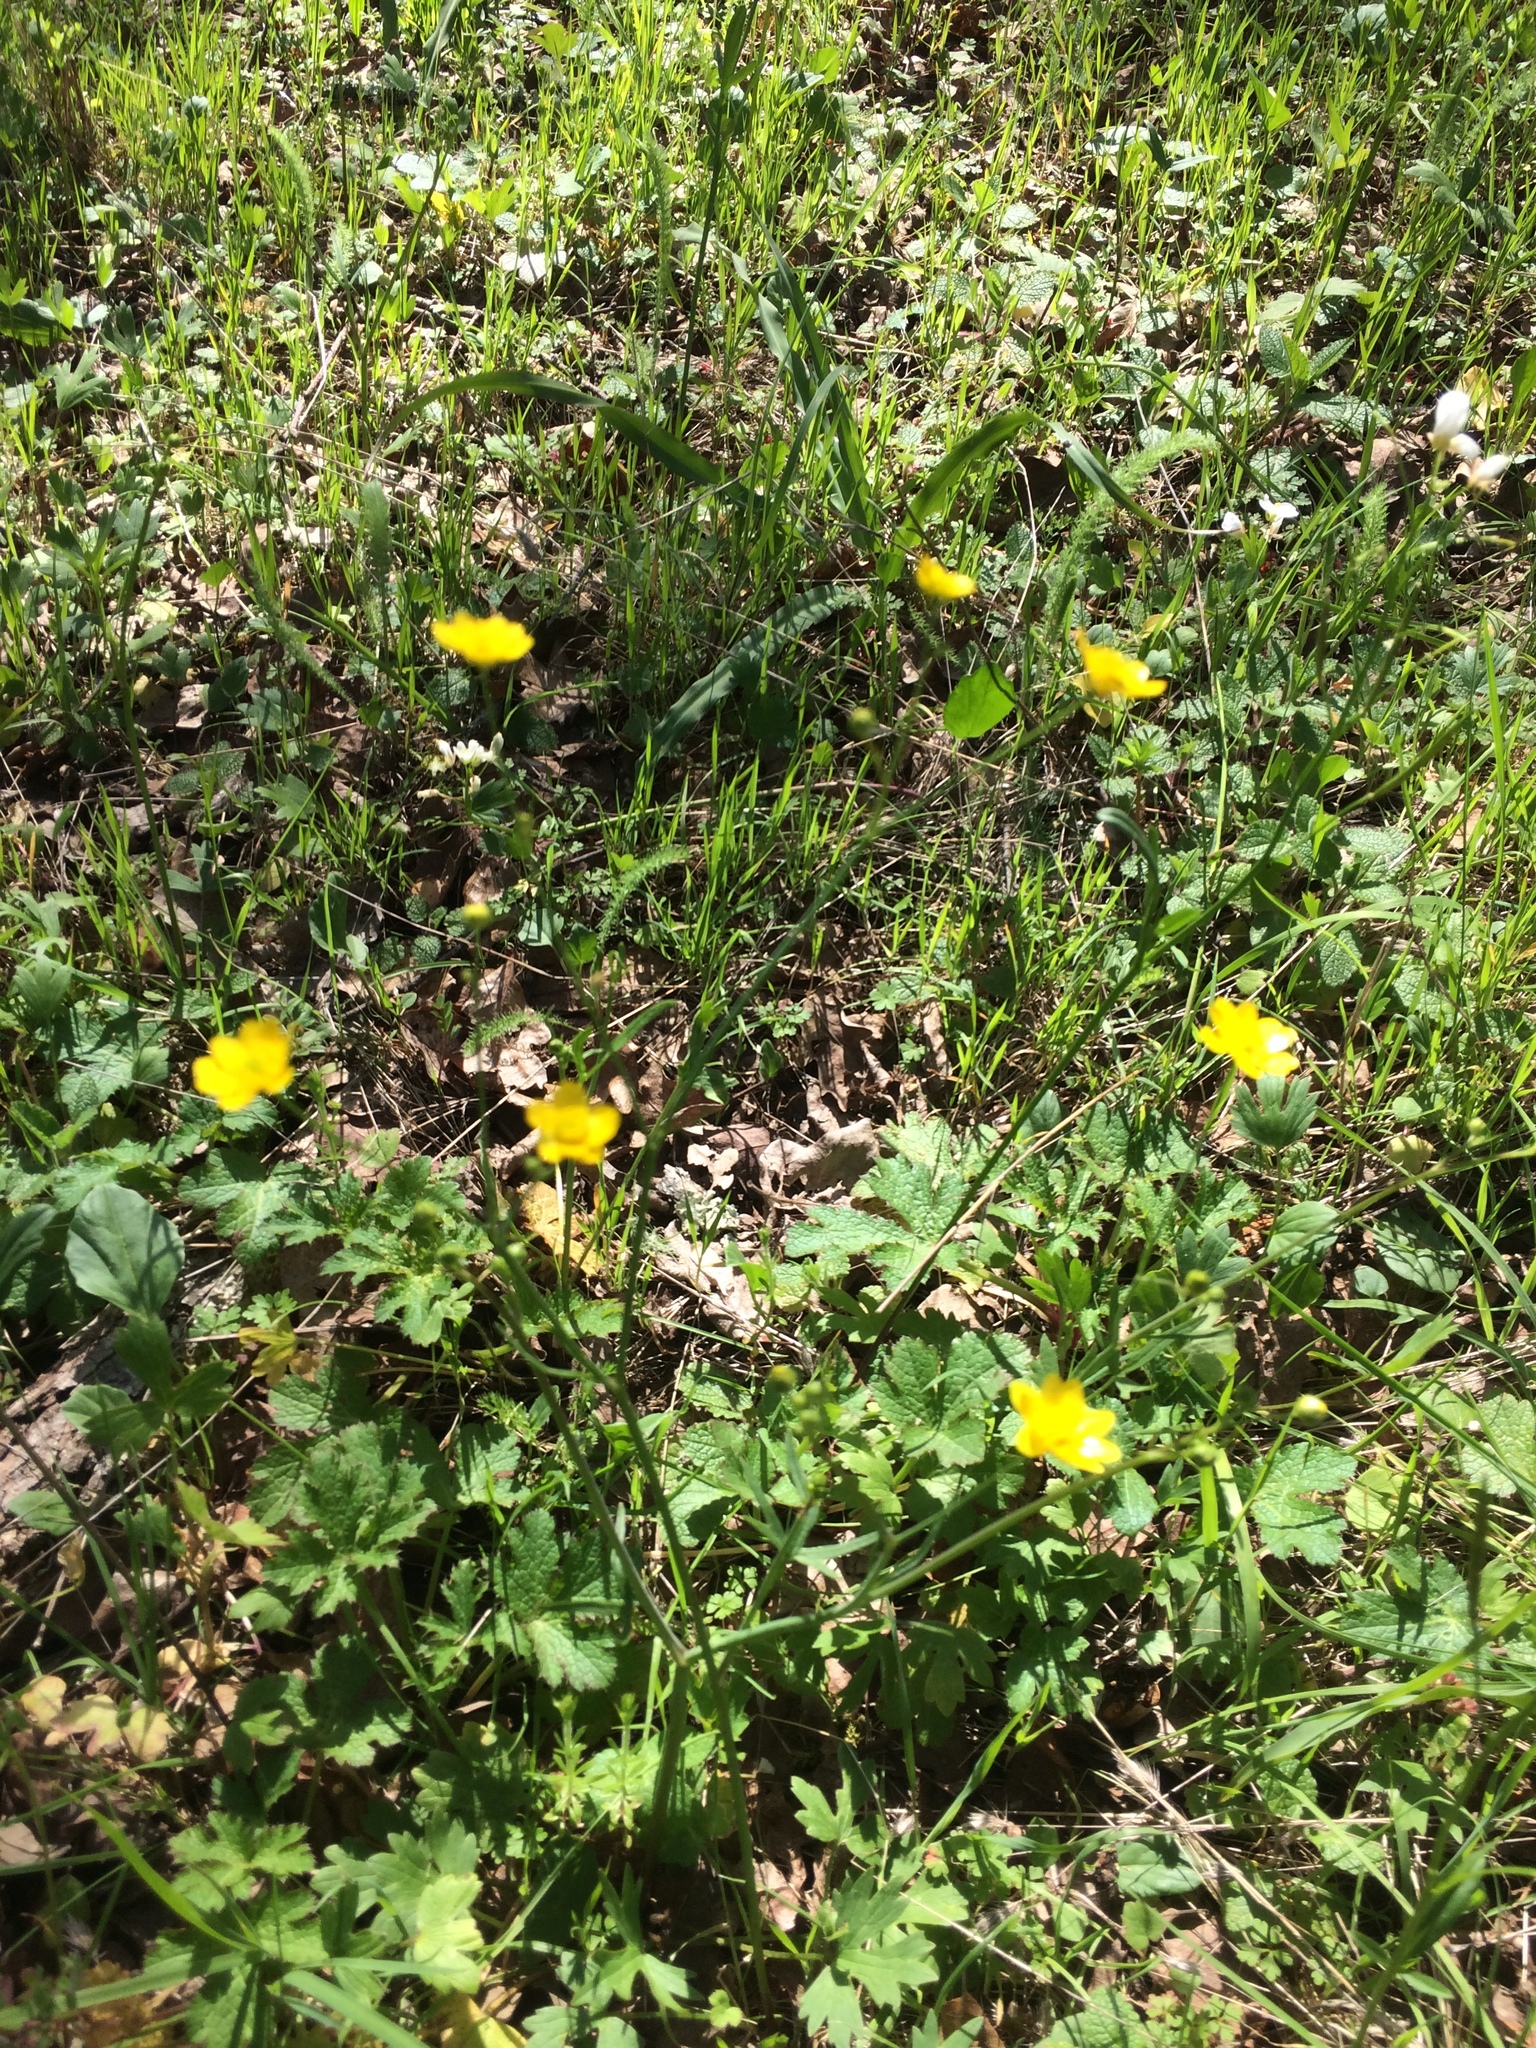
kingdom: Plantae
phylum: Tracheophyta
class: Magnoliopsida
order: Ranunculales
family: Ranunculaceae
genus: Ranunculus
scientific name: Ranunculus californicus
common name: California buttercup
